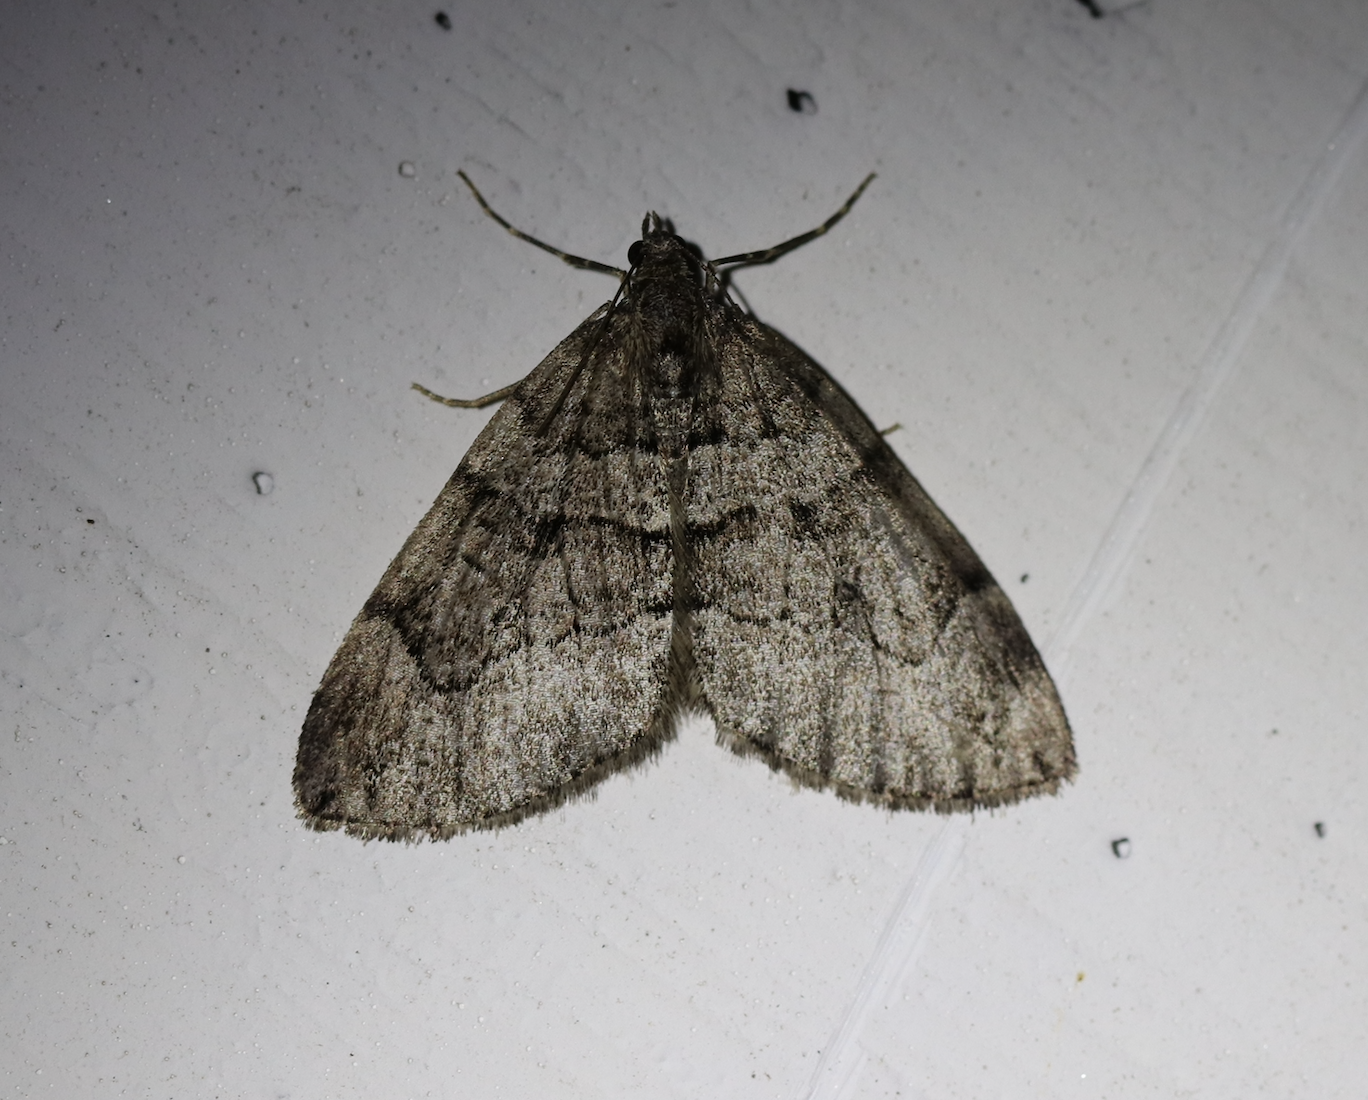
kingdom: Animalia
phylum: Arthropoda
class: Insecta
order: Lepidoptera
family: Geometridae
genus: Thera
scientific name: Thera cognata
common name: Chestnut-coloured carpet
